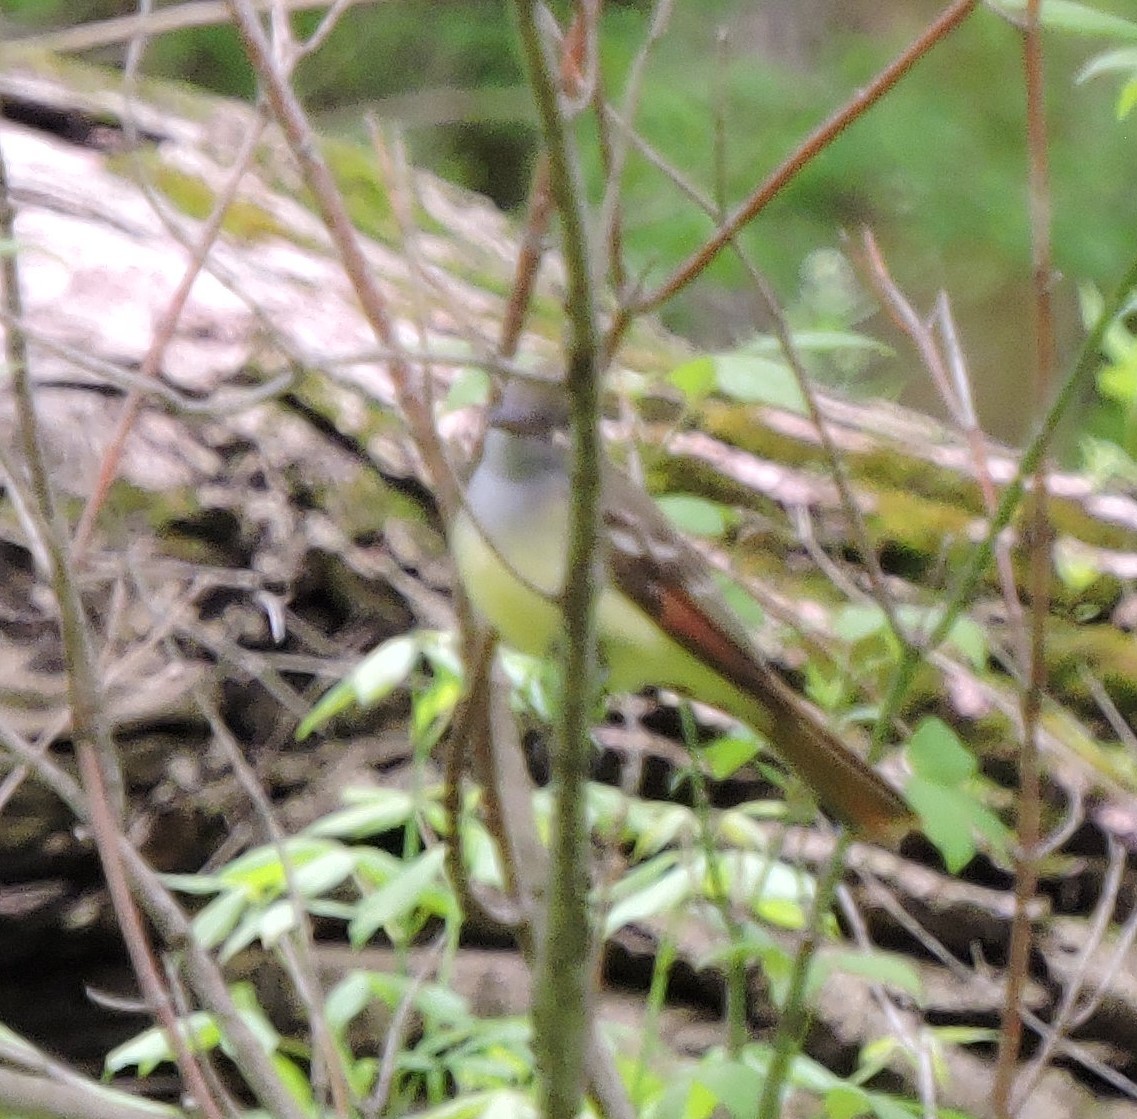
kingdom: Animalia
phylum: Chordata
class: Aves
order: Passeriformes
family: Tyrannidae
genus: Myiarchus
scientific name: Myiarchus crinitus
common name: Great crested flycatcher
